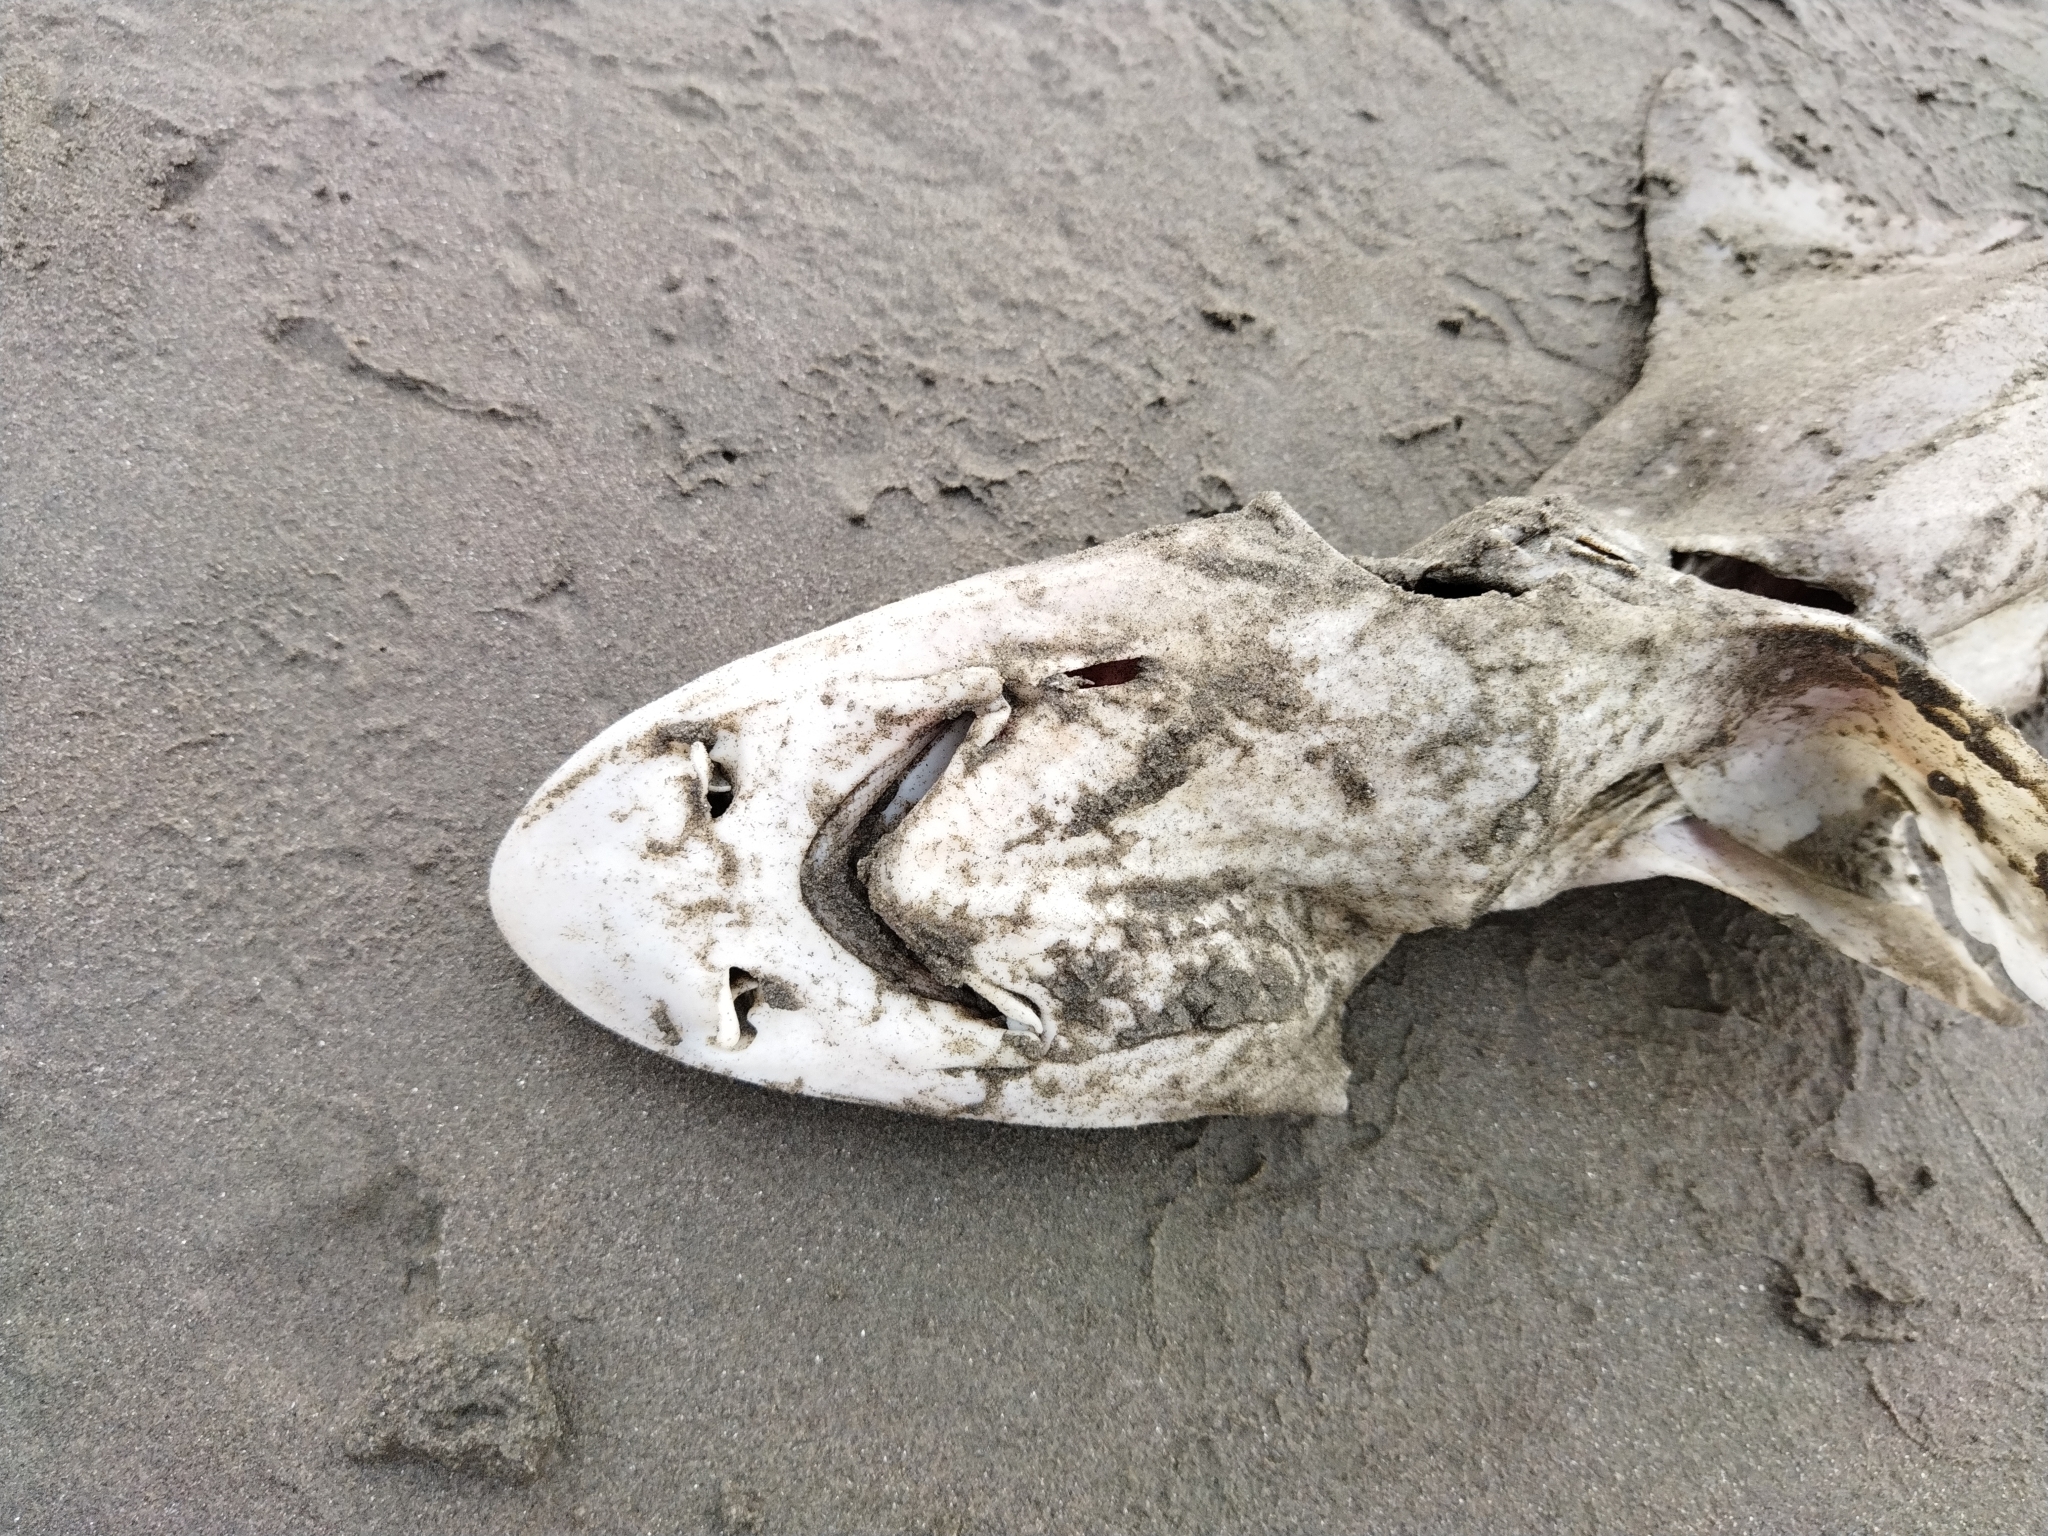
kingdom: Animalia
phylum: Chordata
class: Elasmobranchii
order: Carcharhiniformes
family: Triakidae
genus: Mustelus
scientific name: Mustelus lenticulatus
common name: Gummy shark
